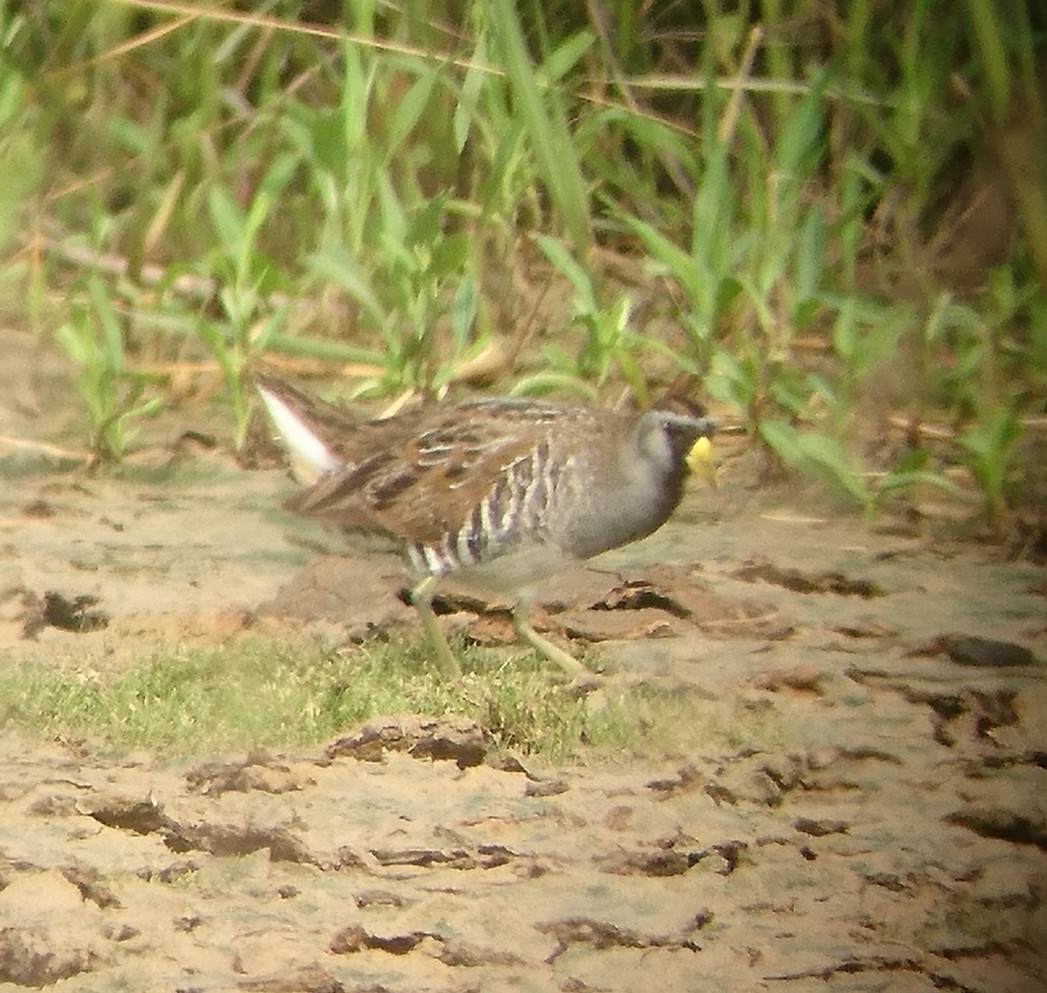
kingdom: Animalia
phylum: Chordata
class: Aves
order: Gruiformes
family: Rallidae
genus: Porzana
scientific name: Porzana carolina
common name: Sora
